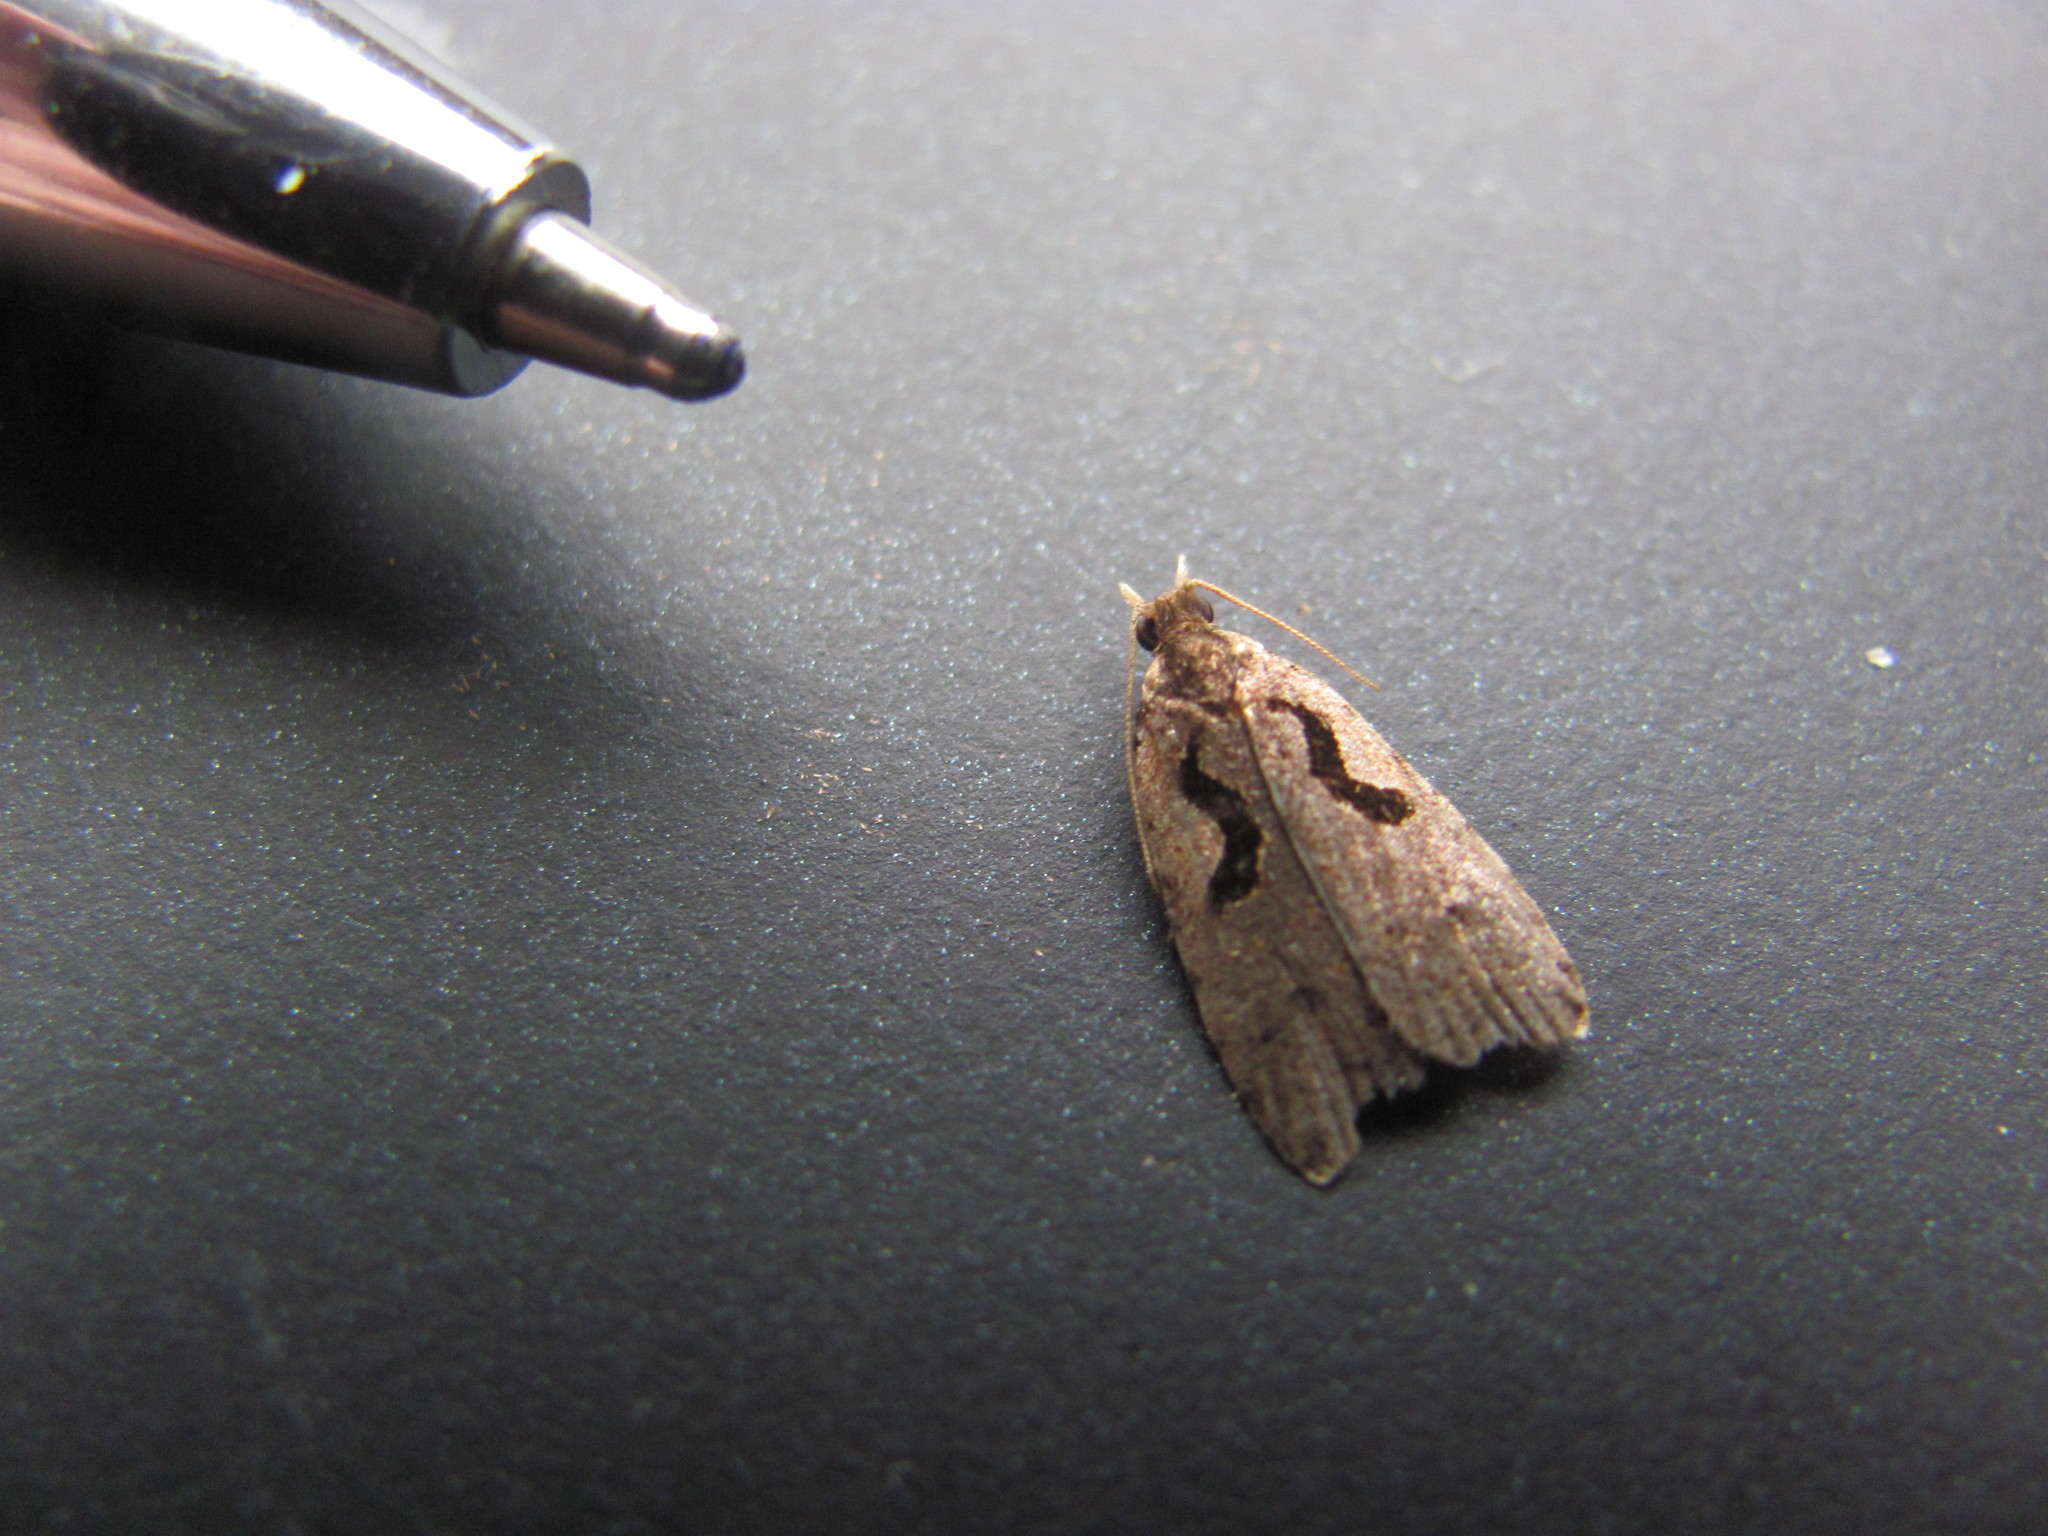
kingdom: Animalia
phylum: Arthropoda
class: Insecta
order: Lepidoptera
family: Tortricidae
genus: Cnephasia
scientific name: Cnephasia jactatana
